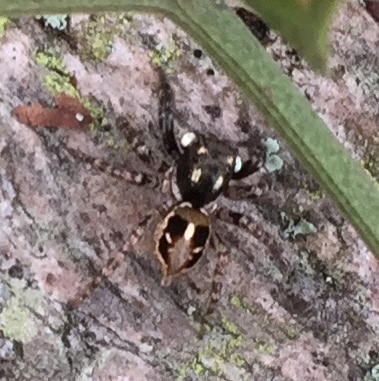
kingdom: Animalia
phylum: Arthropoda
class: Arachnida
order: Araneae
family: Salticidae
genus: Anasaitis
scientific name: Anasaitis canosa
